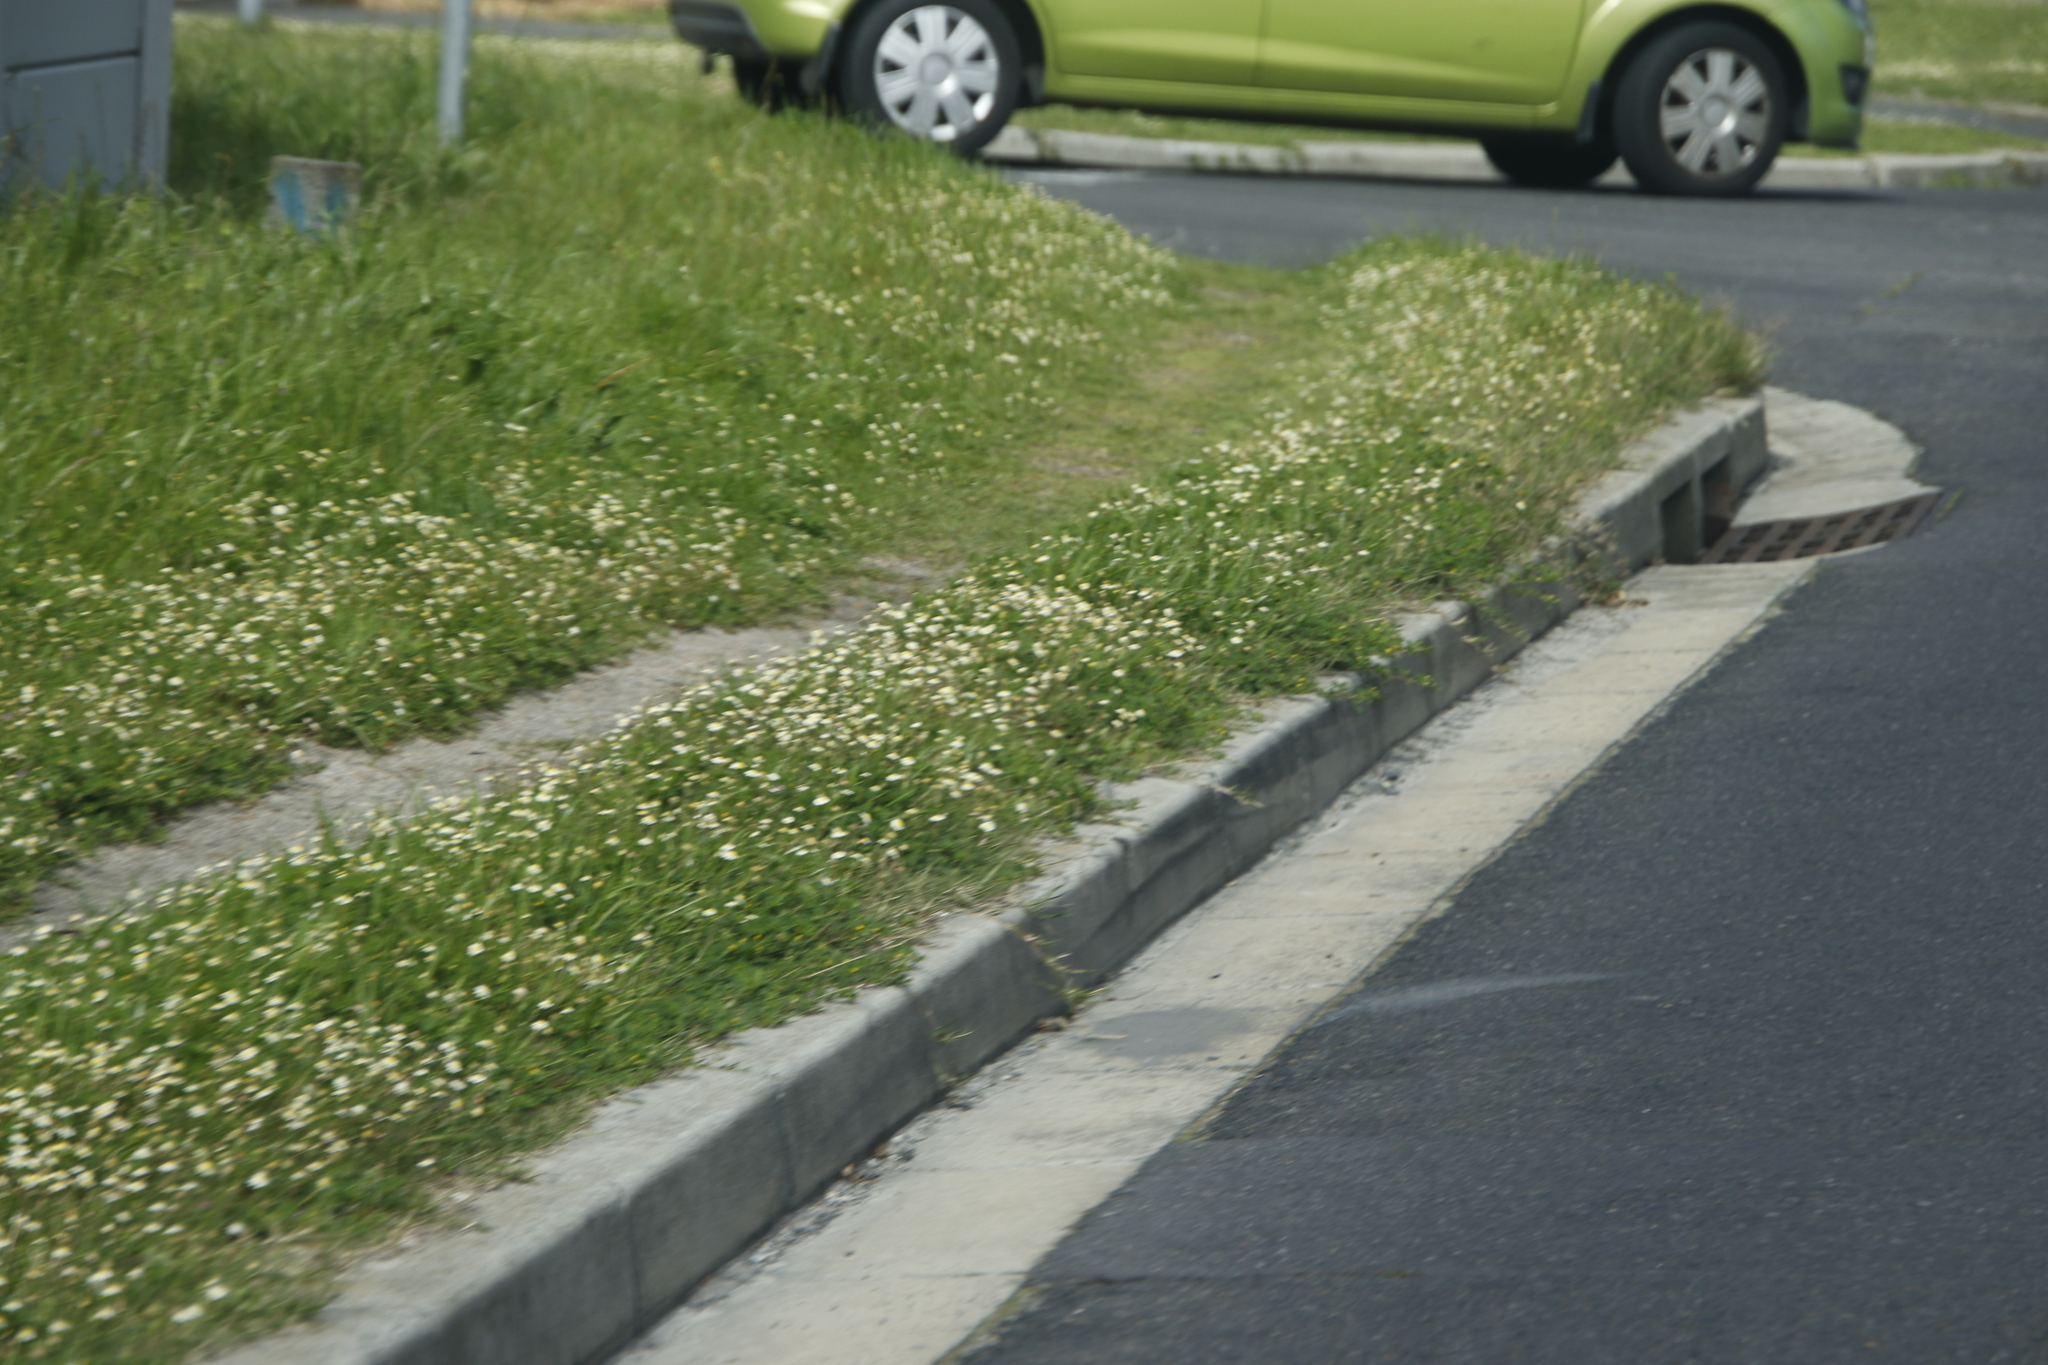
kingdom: Plantae
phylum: Tracheophyta
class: Magnoliopsida
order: Asterales
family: Asteraceae
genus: Cotula
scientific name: Cotula turbinata
